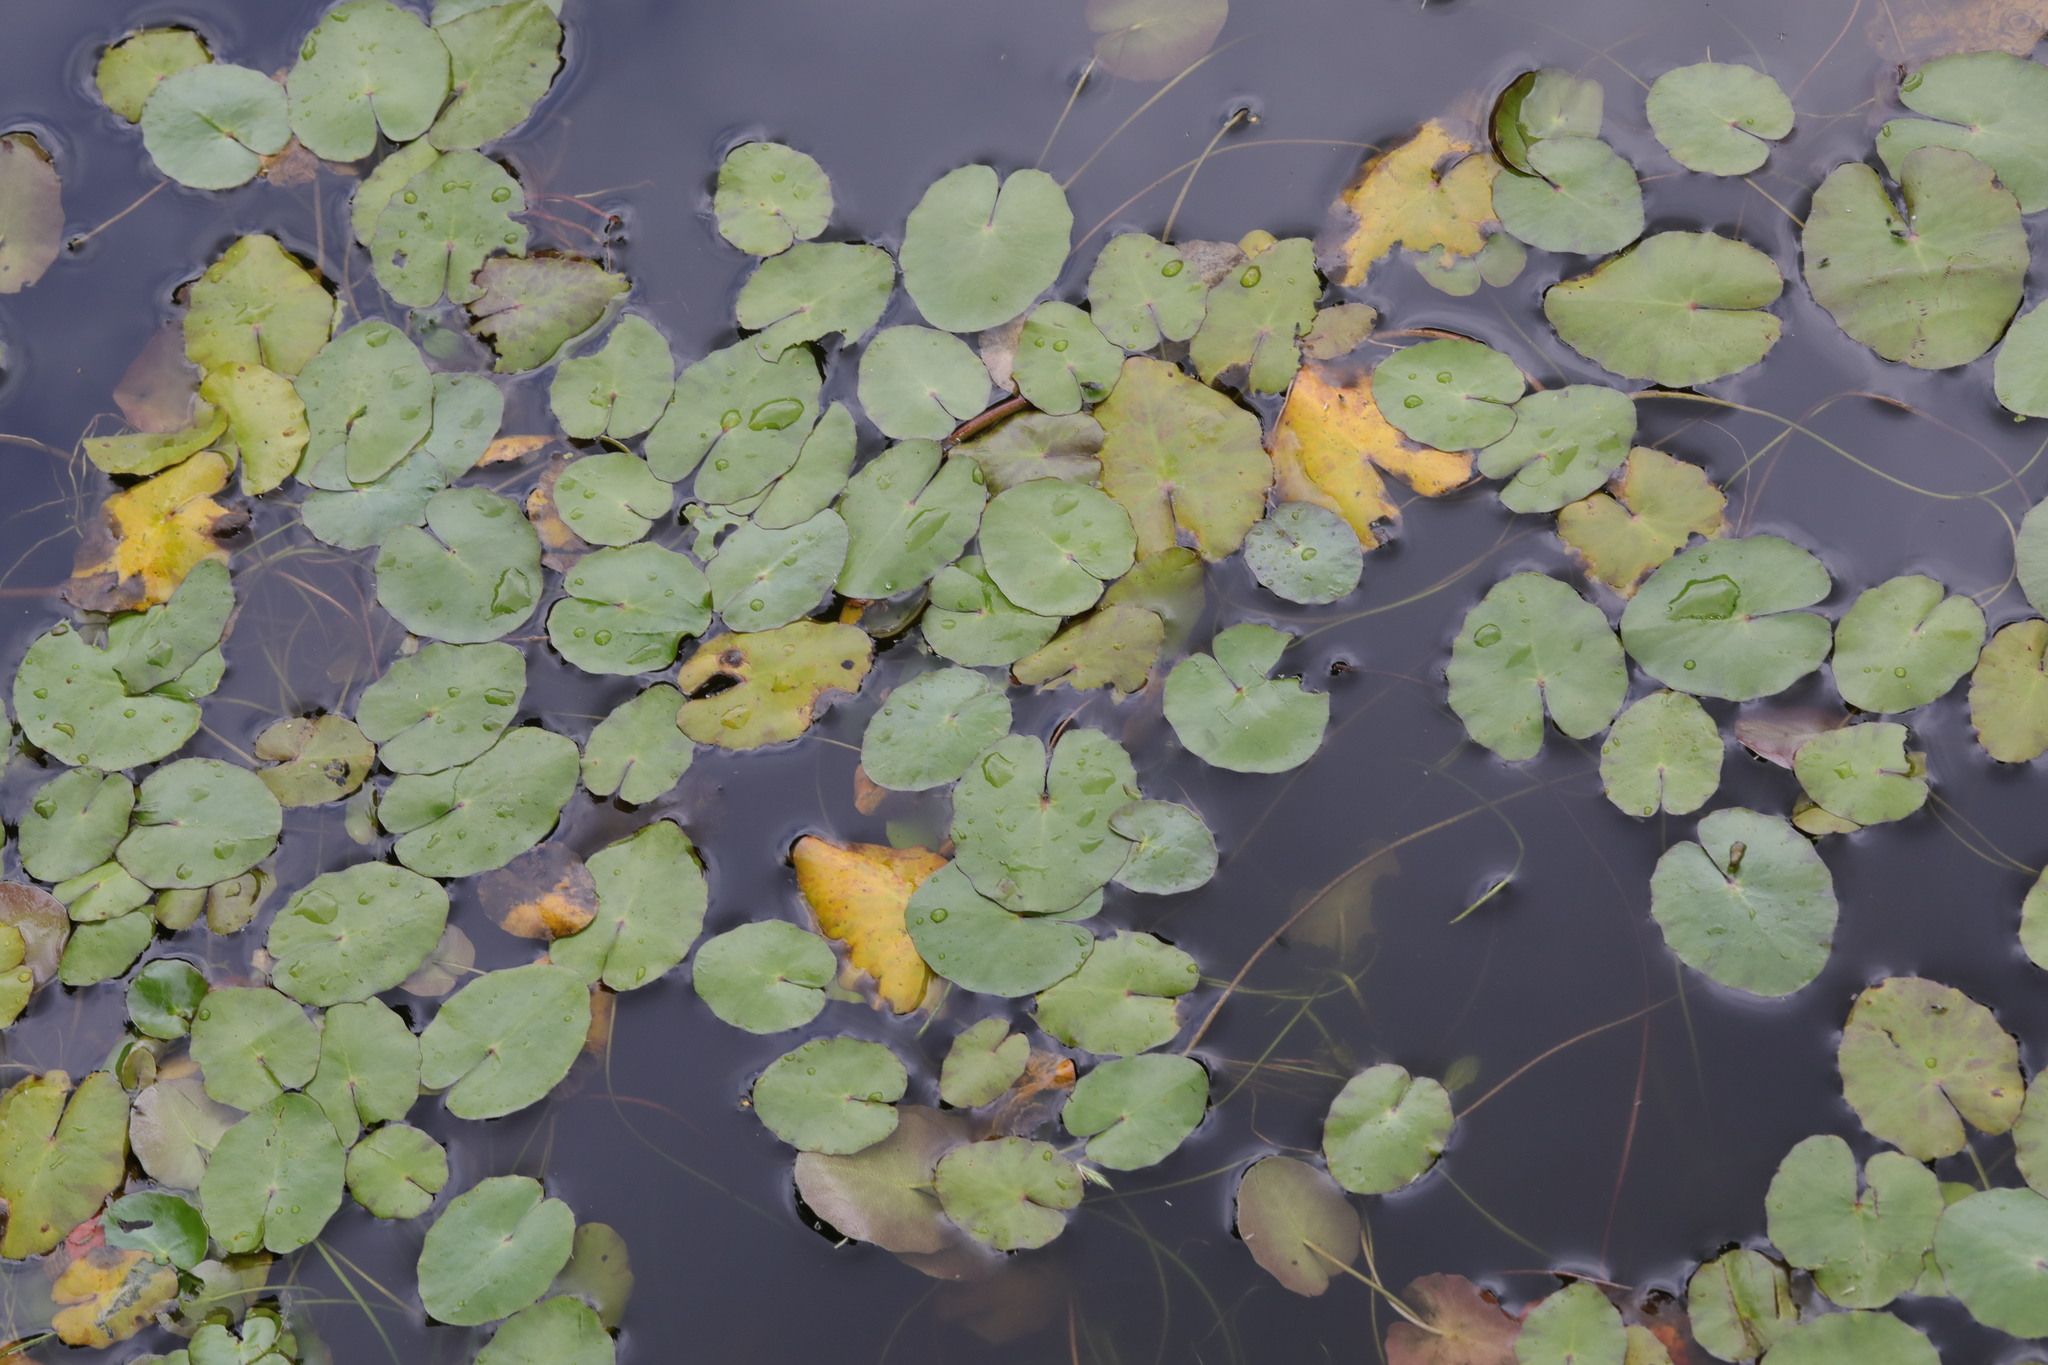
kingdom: Plantae
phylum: Tracheophyta
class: Magnoliopsida
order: Asterales
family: Menyanthaceae
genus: Nymphoides
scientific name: Nymphoides peltata
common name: Fringed water-lily
